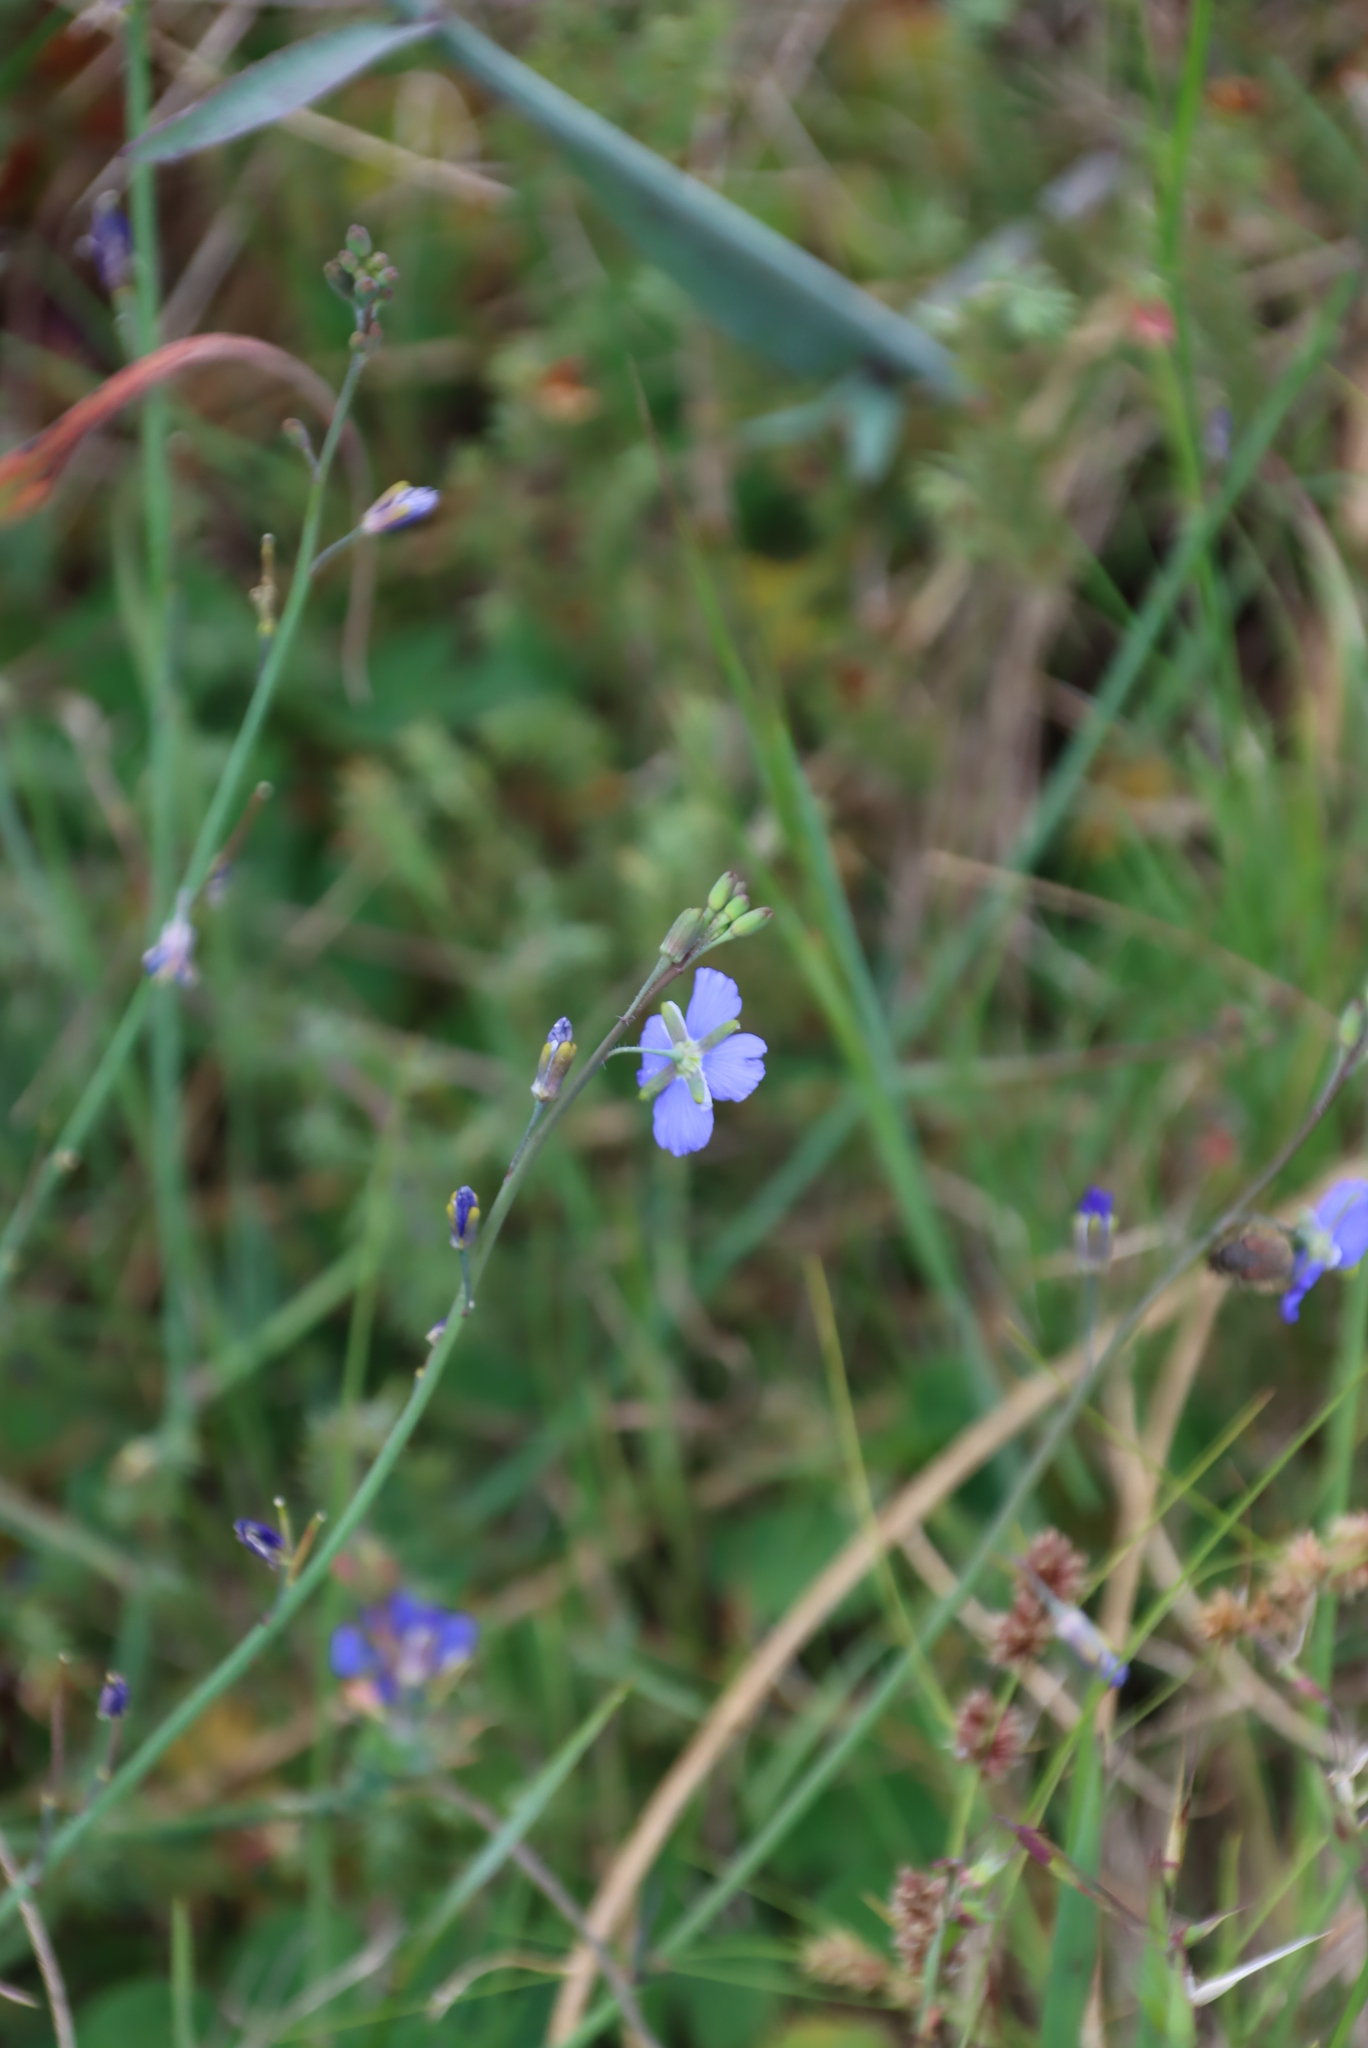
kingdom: Plantae
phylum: Tracheophyta
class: Magnoliopsida
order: Brassicales
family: Brassicaceae
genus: Heliophila
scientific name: Heliophila africana
